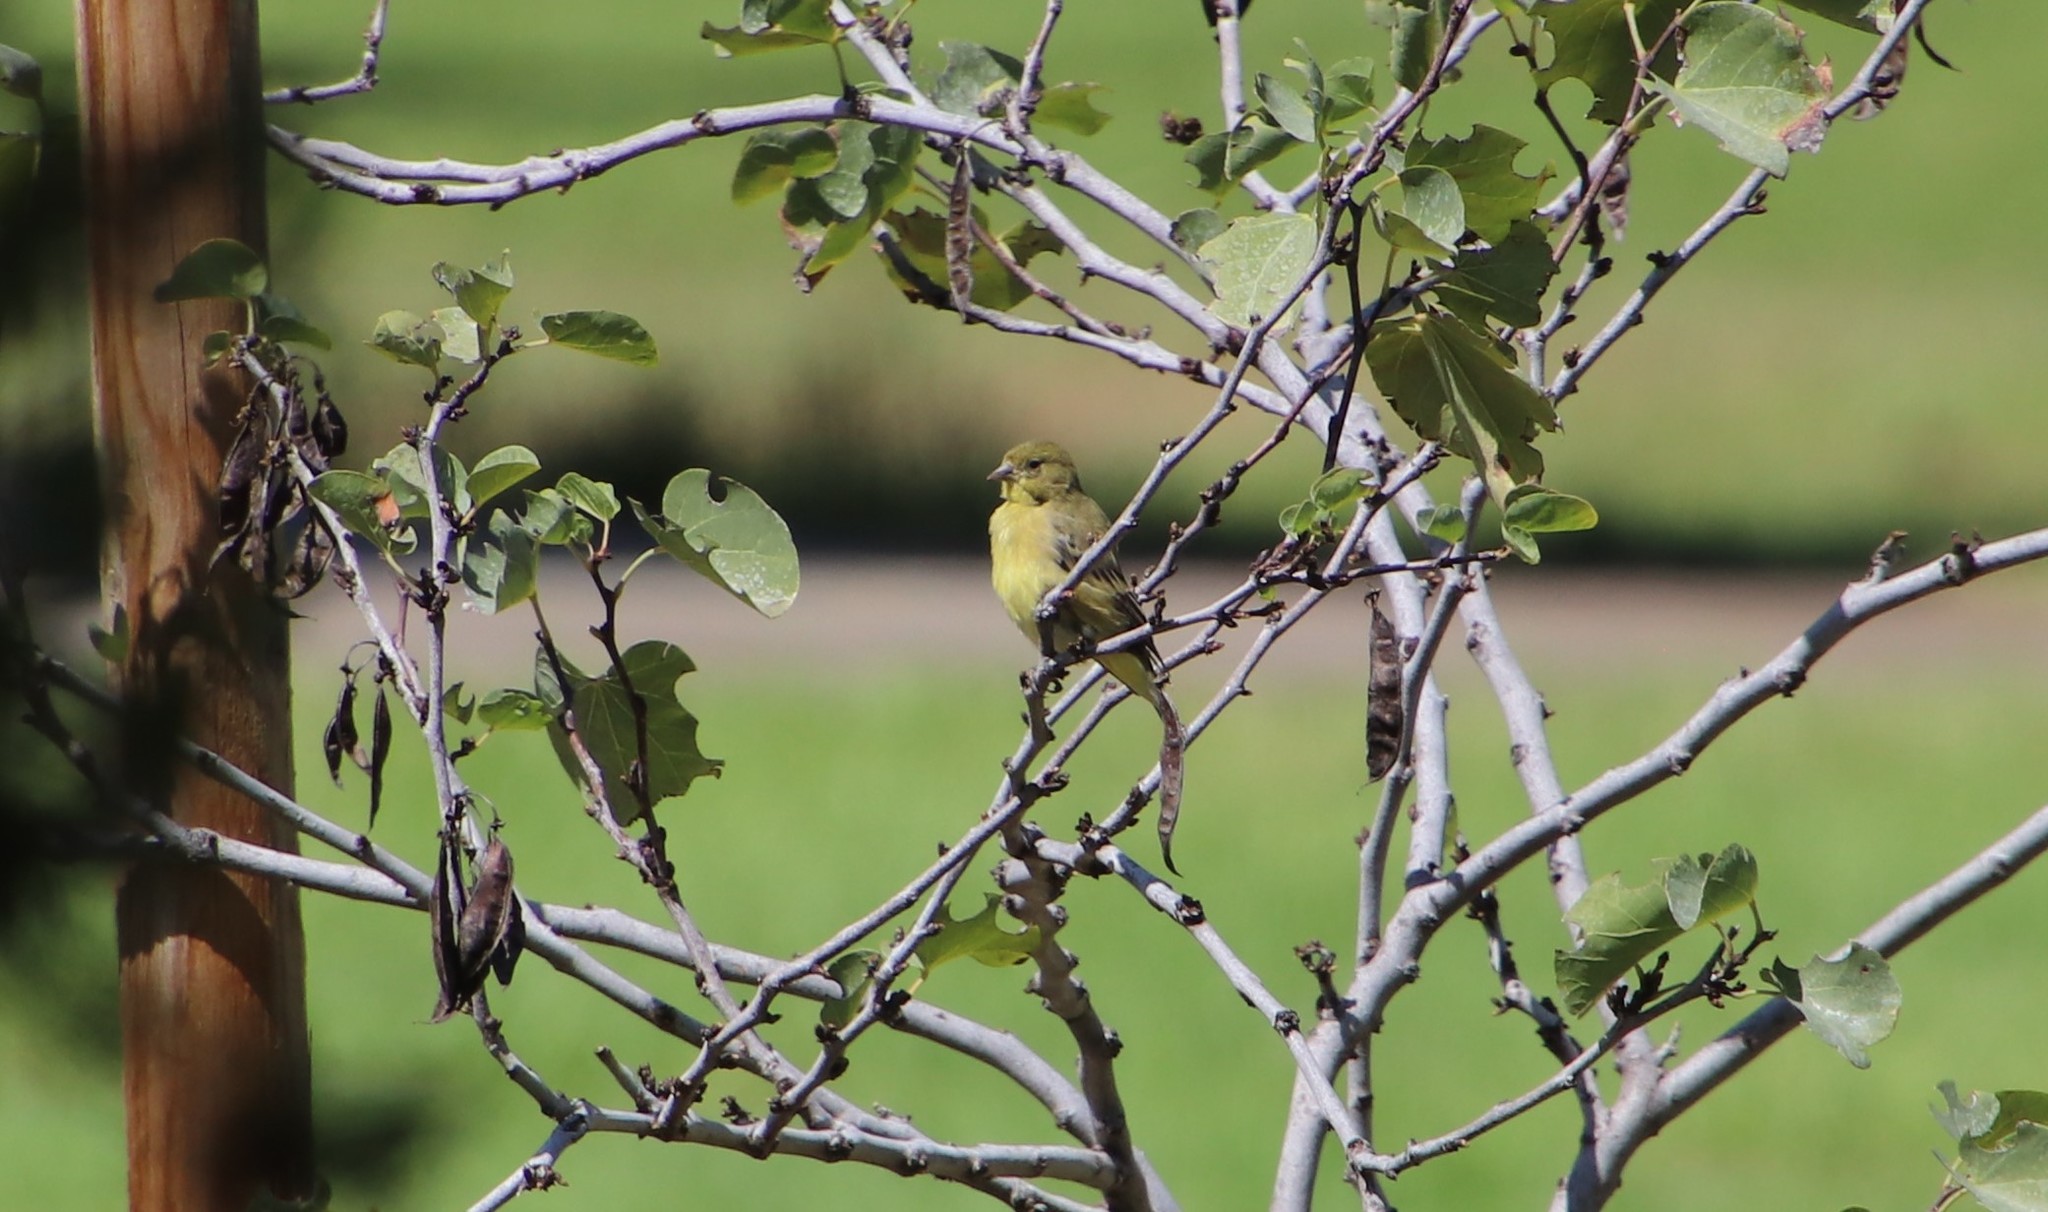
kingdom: Animalia
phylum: Chordata
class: Aves
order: Passeriformes
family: Fringillidae
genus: Spinus
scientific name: Spinus psaltria
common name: Lesser goldfinch
